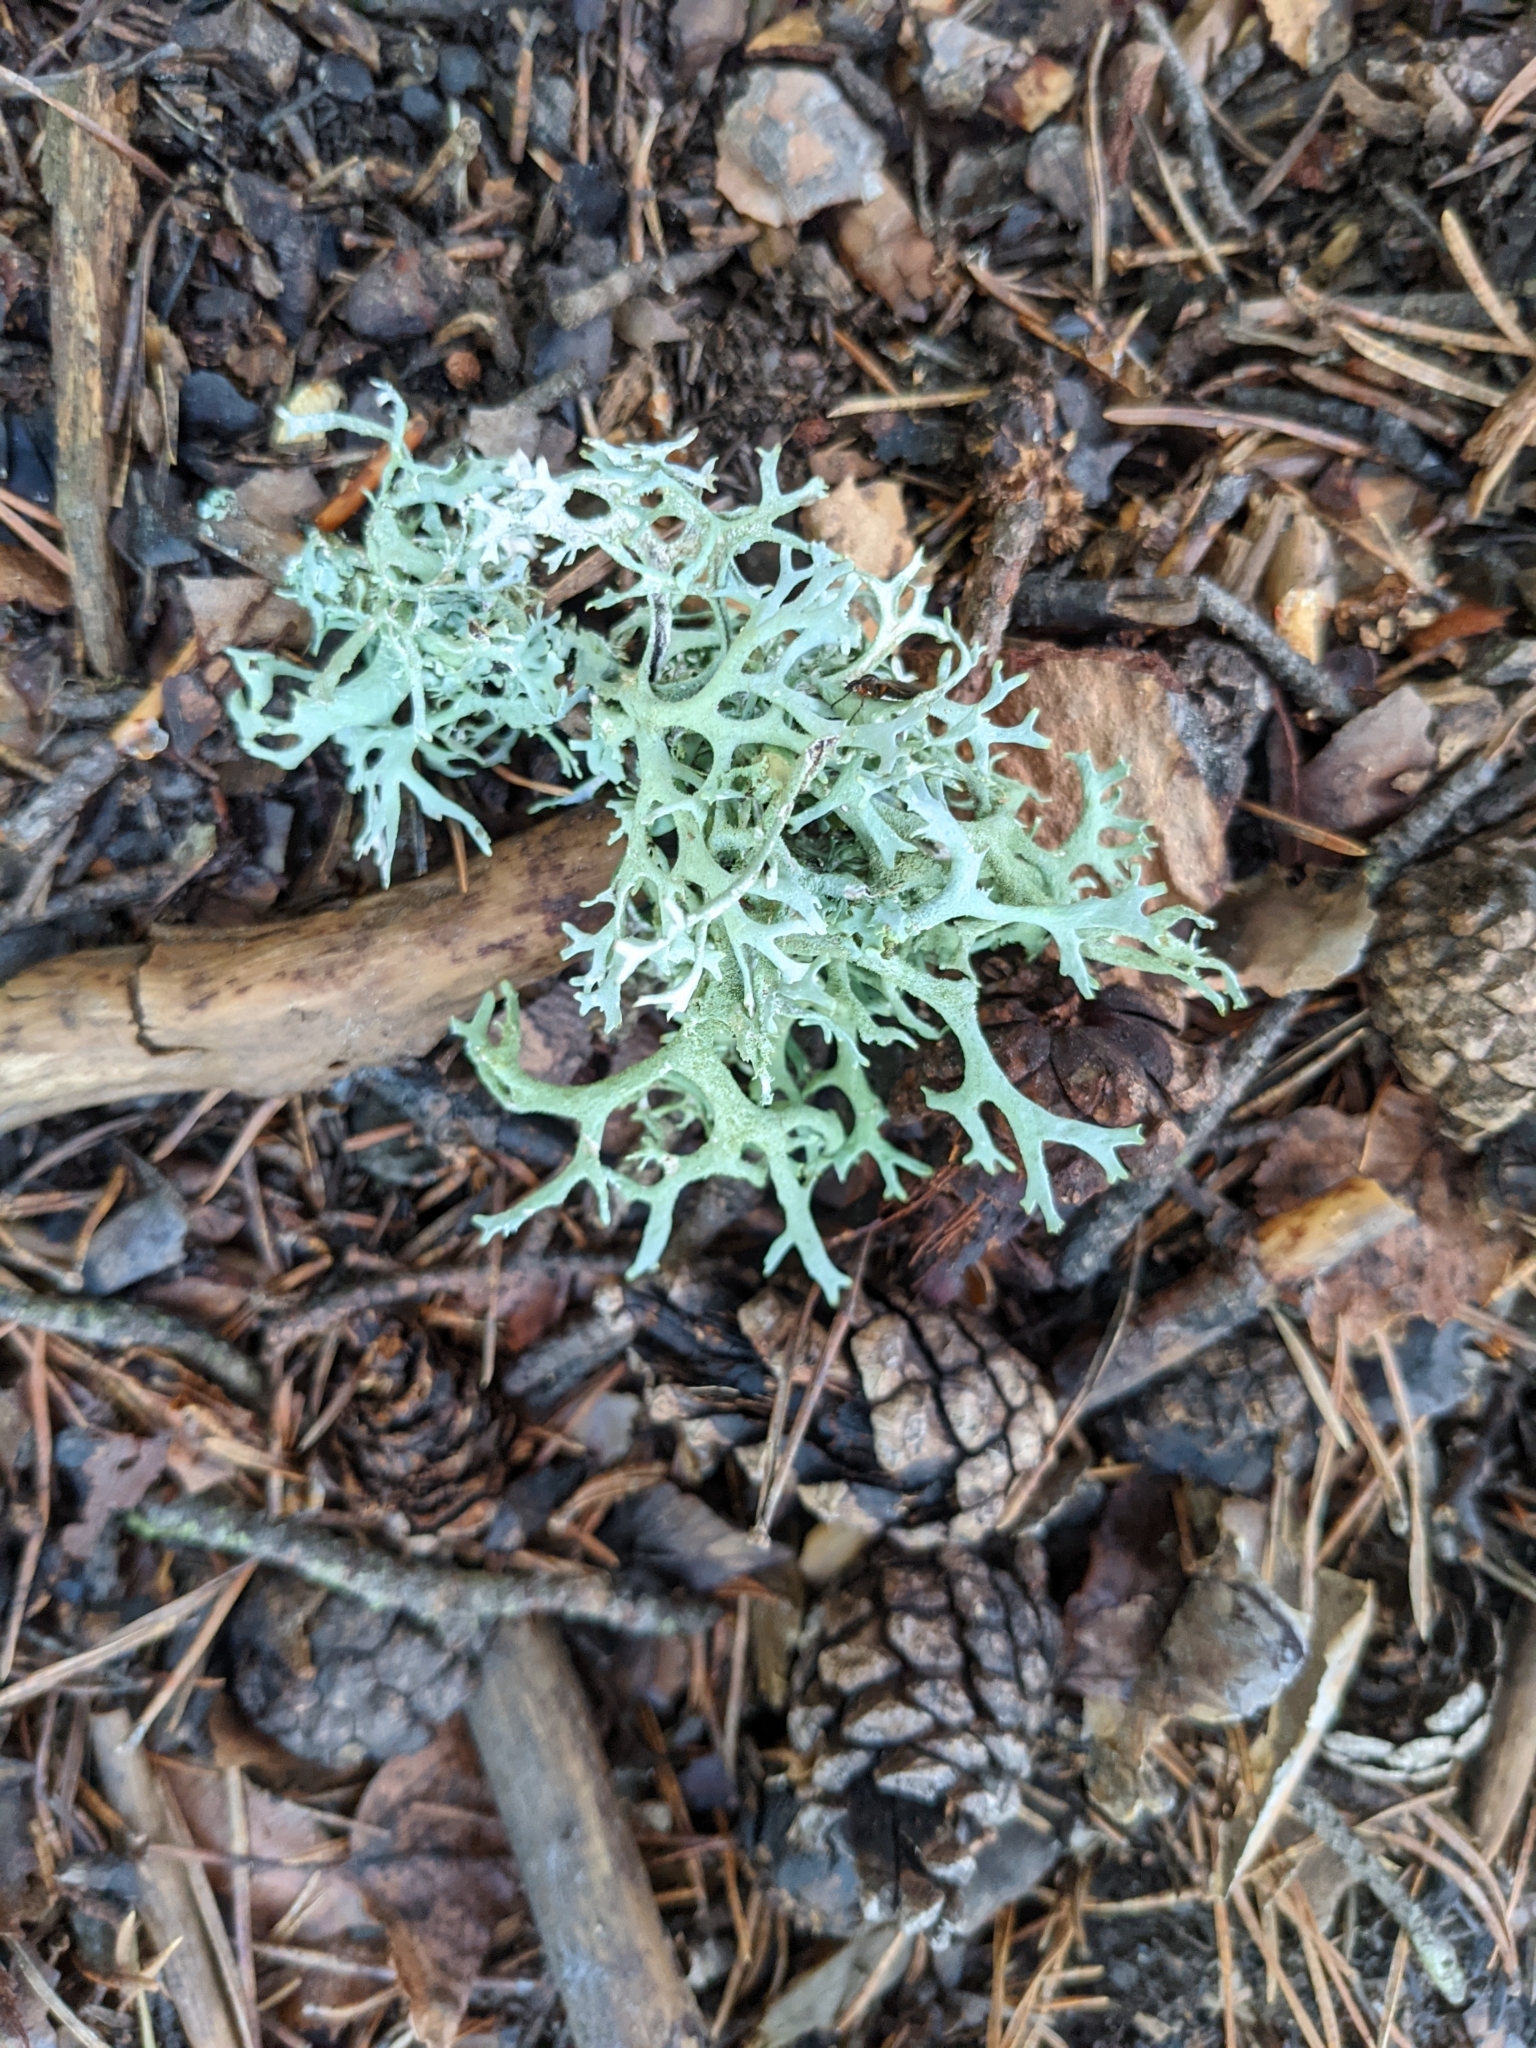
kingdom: Fungi
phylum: Ascomycota
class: Lecanoromycetes
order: Lecanorales
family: Parmeliaceae
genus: Pseudevernia
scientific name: Pseudevernia furfuracea
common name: Tree moss
